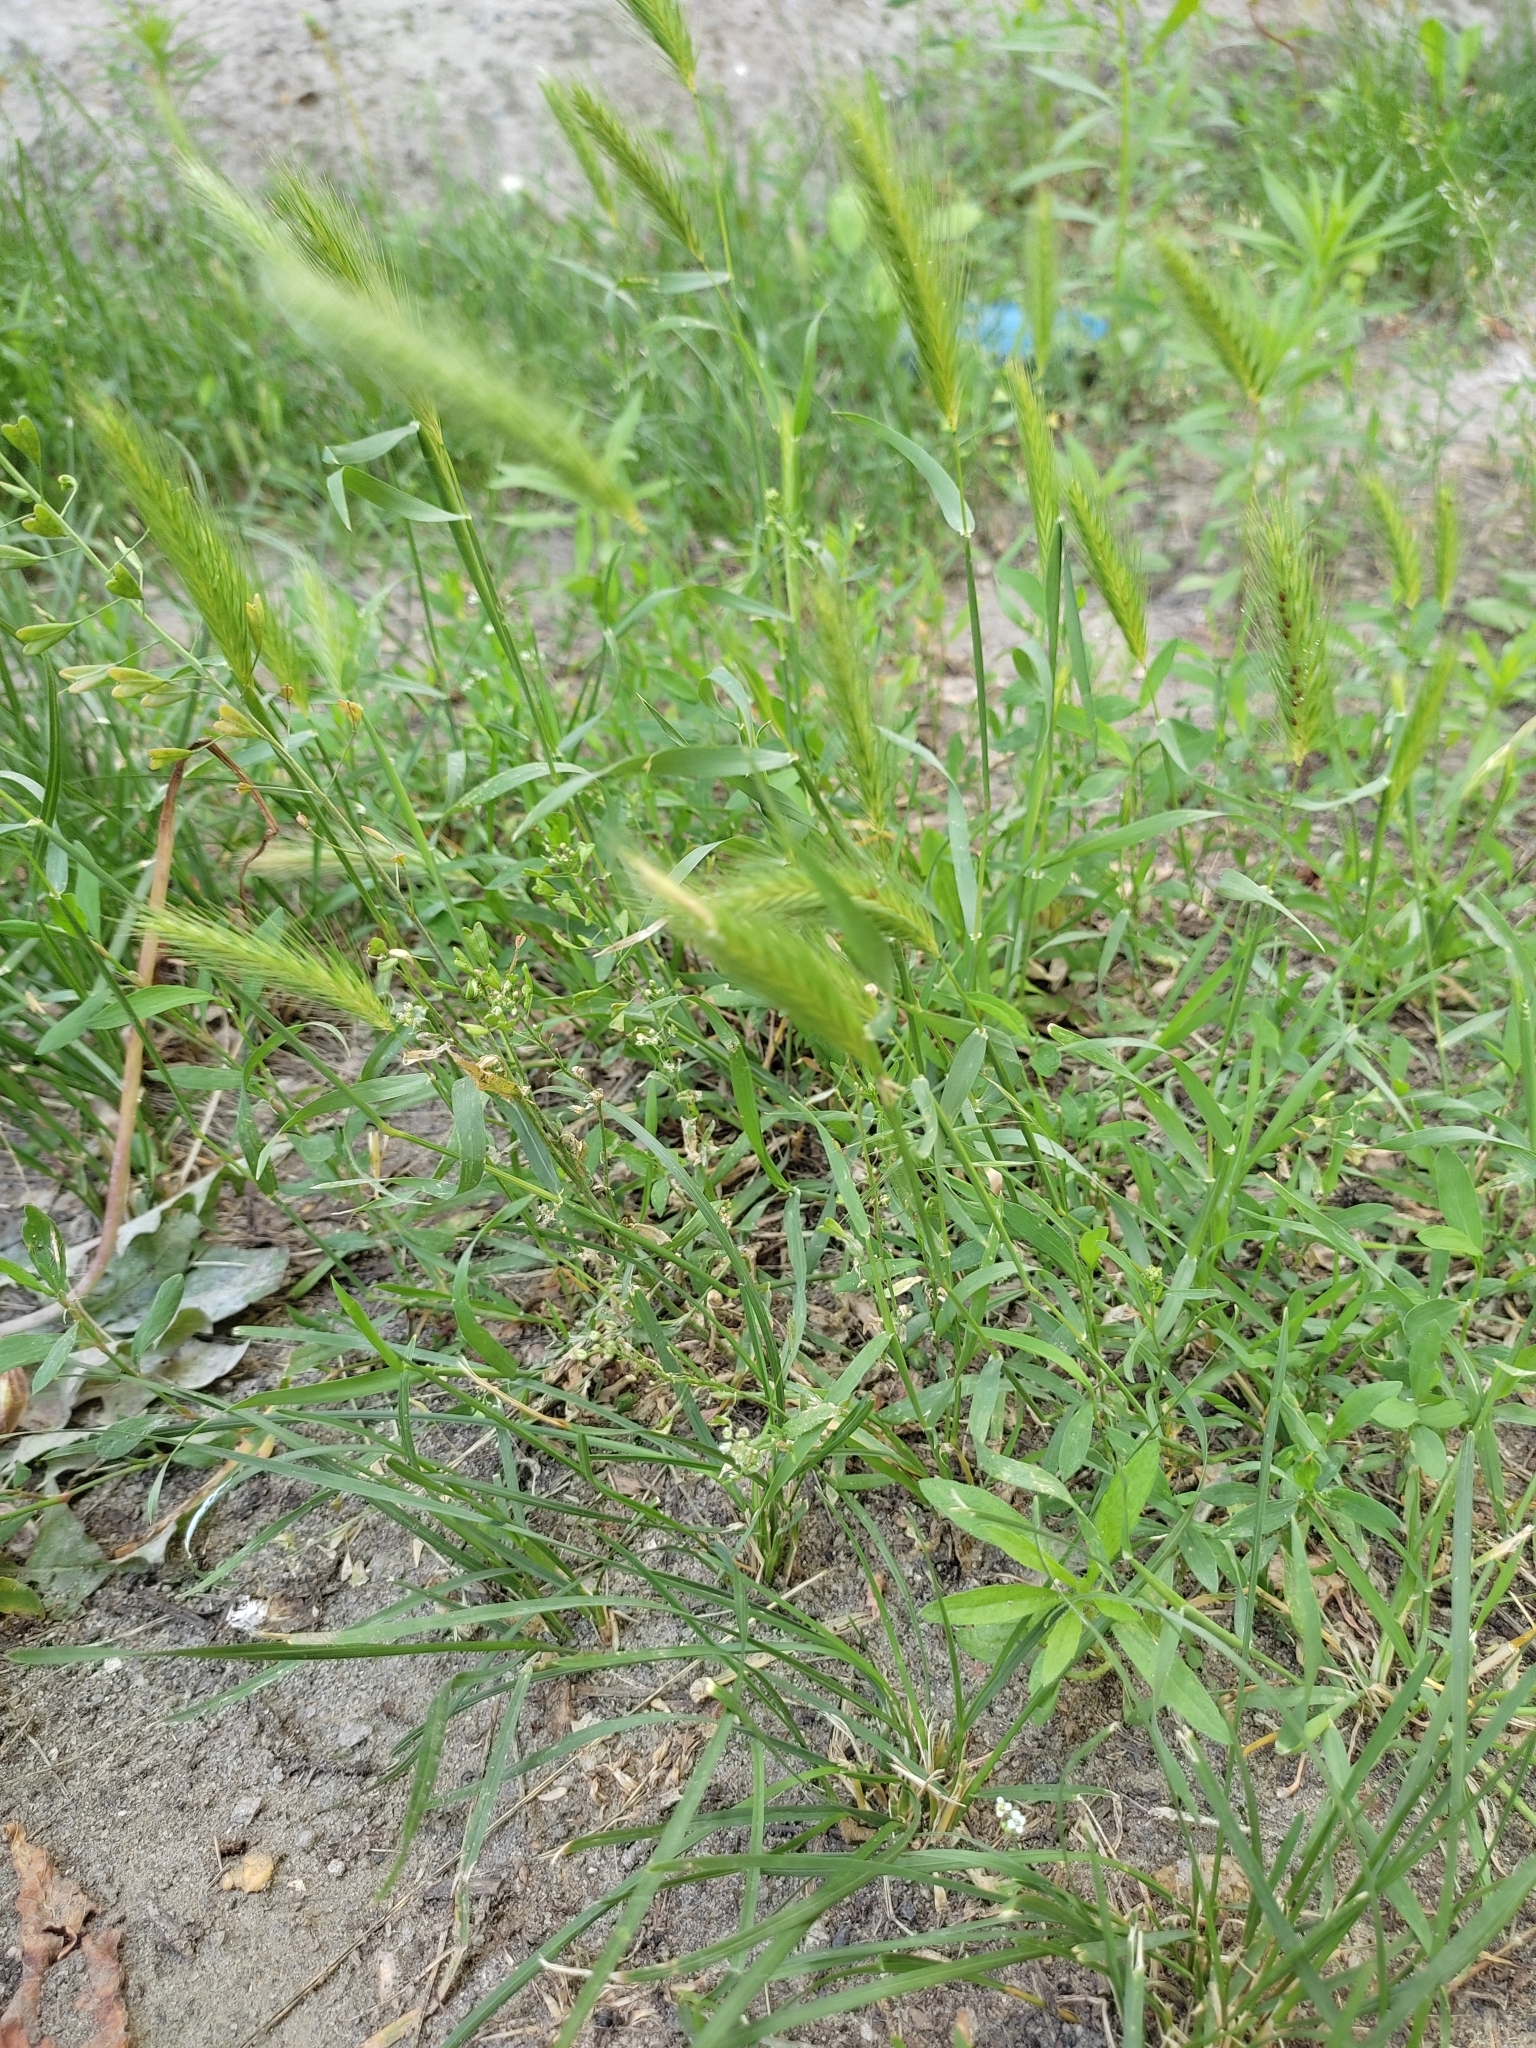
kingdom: Plantae
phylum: Tracheophyta
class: Liliopsida
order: Poales
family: Poaceae
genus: Hordeum
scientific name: Hordeum murinum
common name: Wall barley
